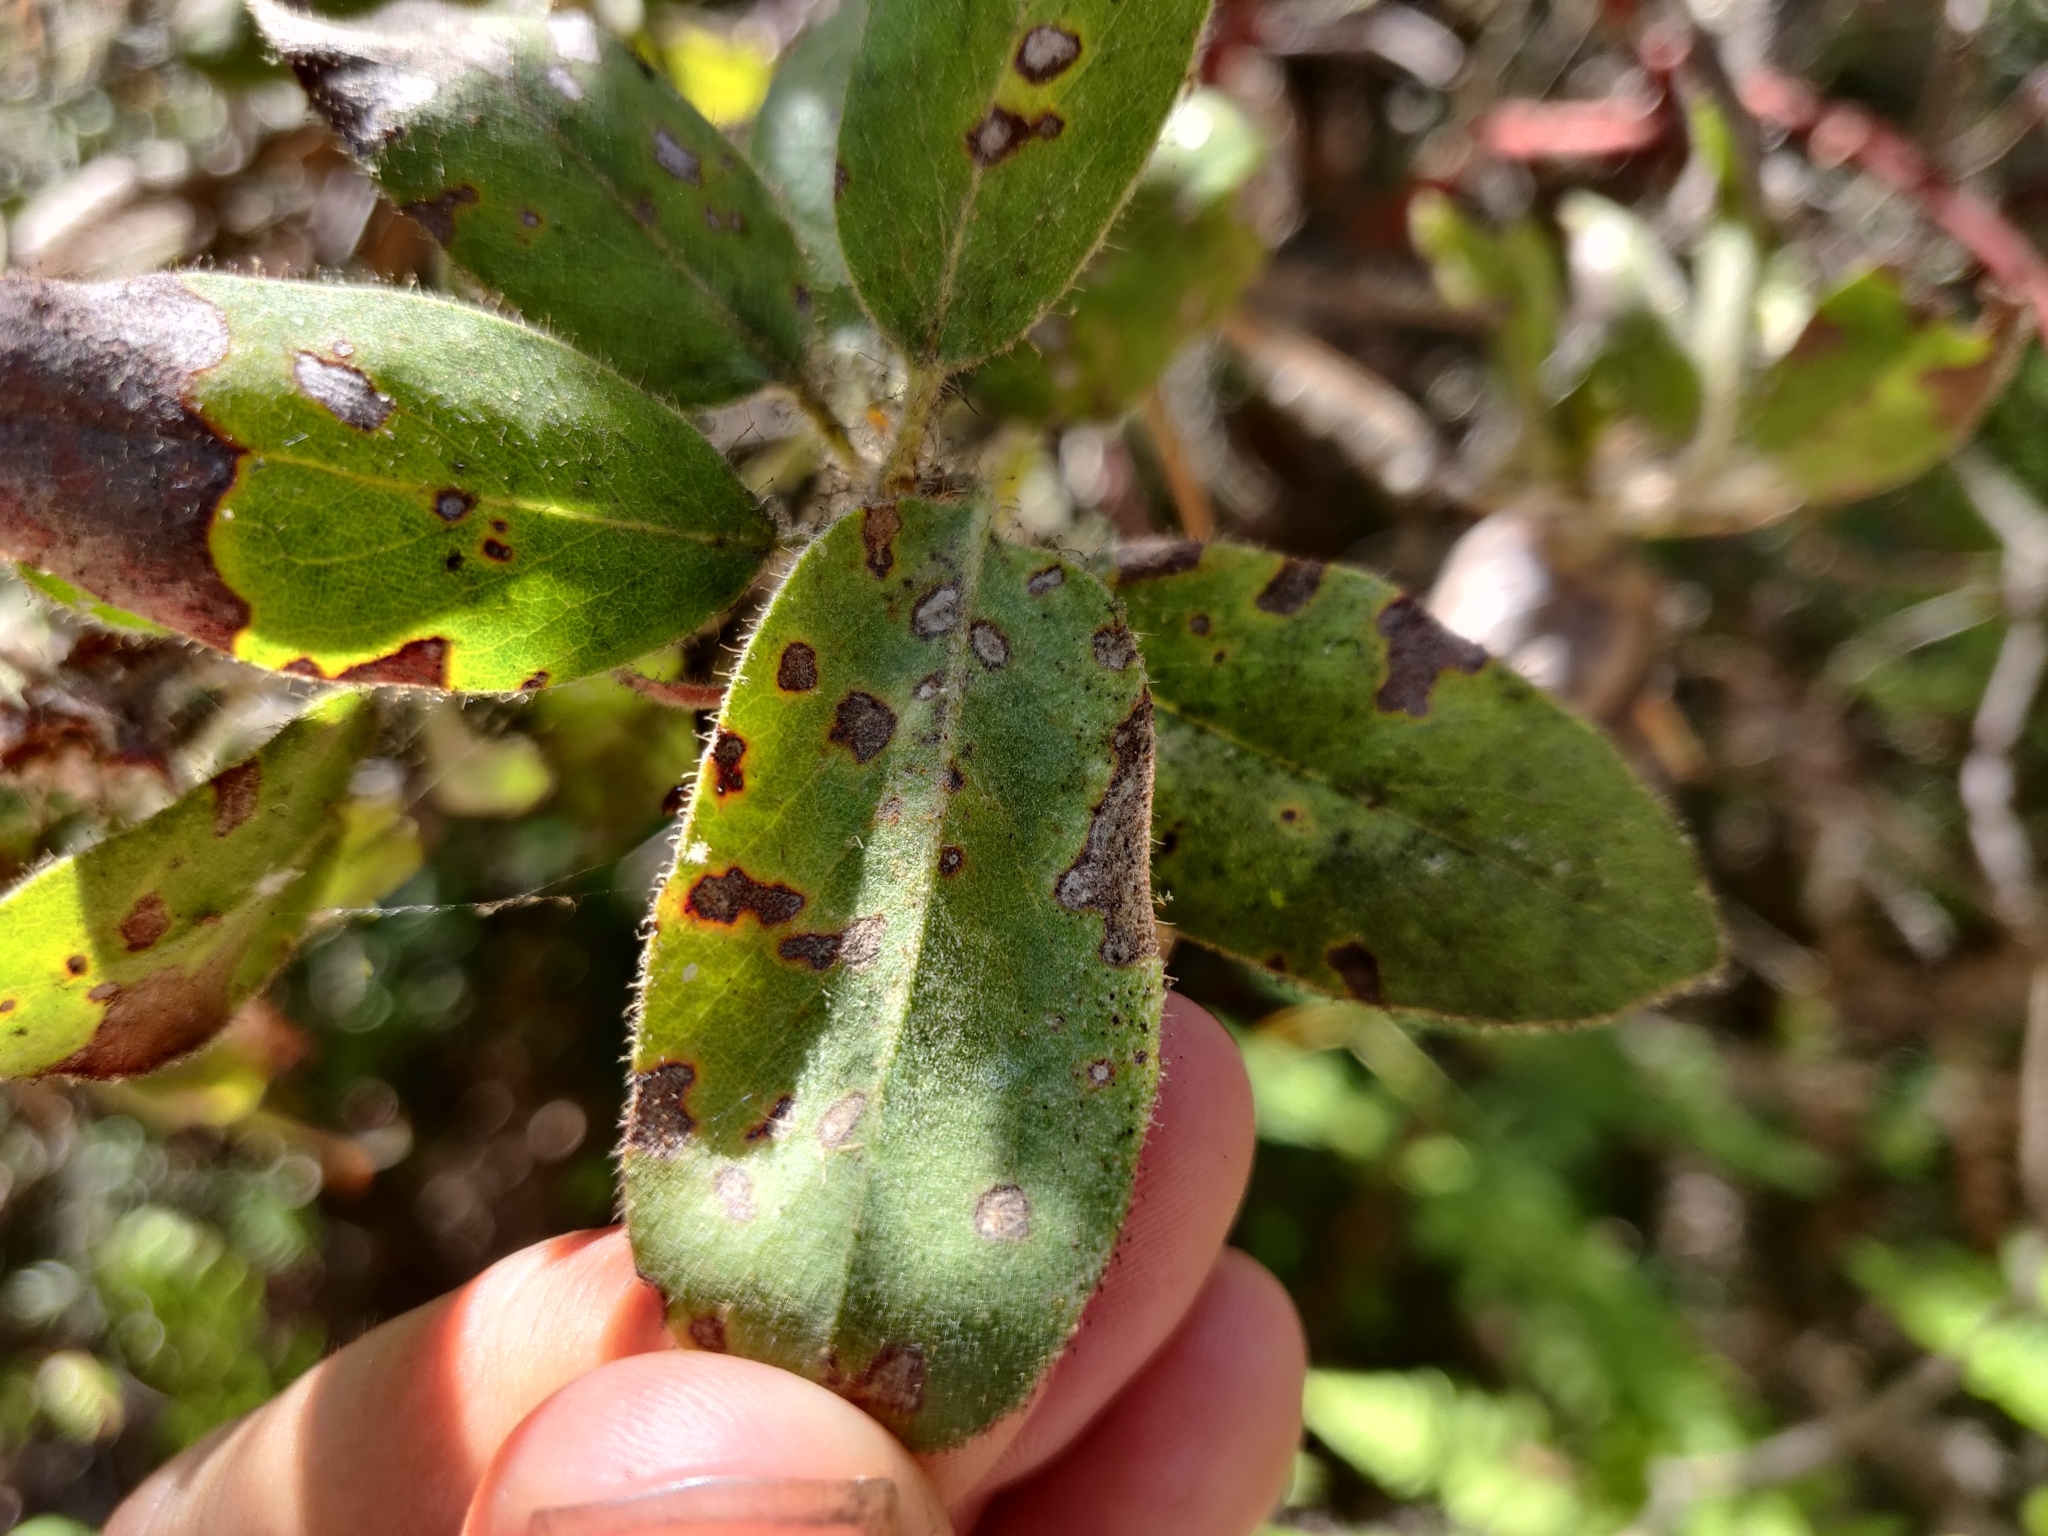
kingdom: Plantae
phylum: Tracheophyta
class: Magnoliopsida
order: Ericales
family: Ericaceae
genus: Arctostaphylos
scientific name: Arctostaphylos columbiana
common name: Bristly bearberry
